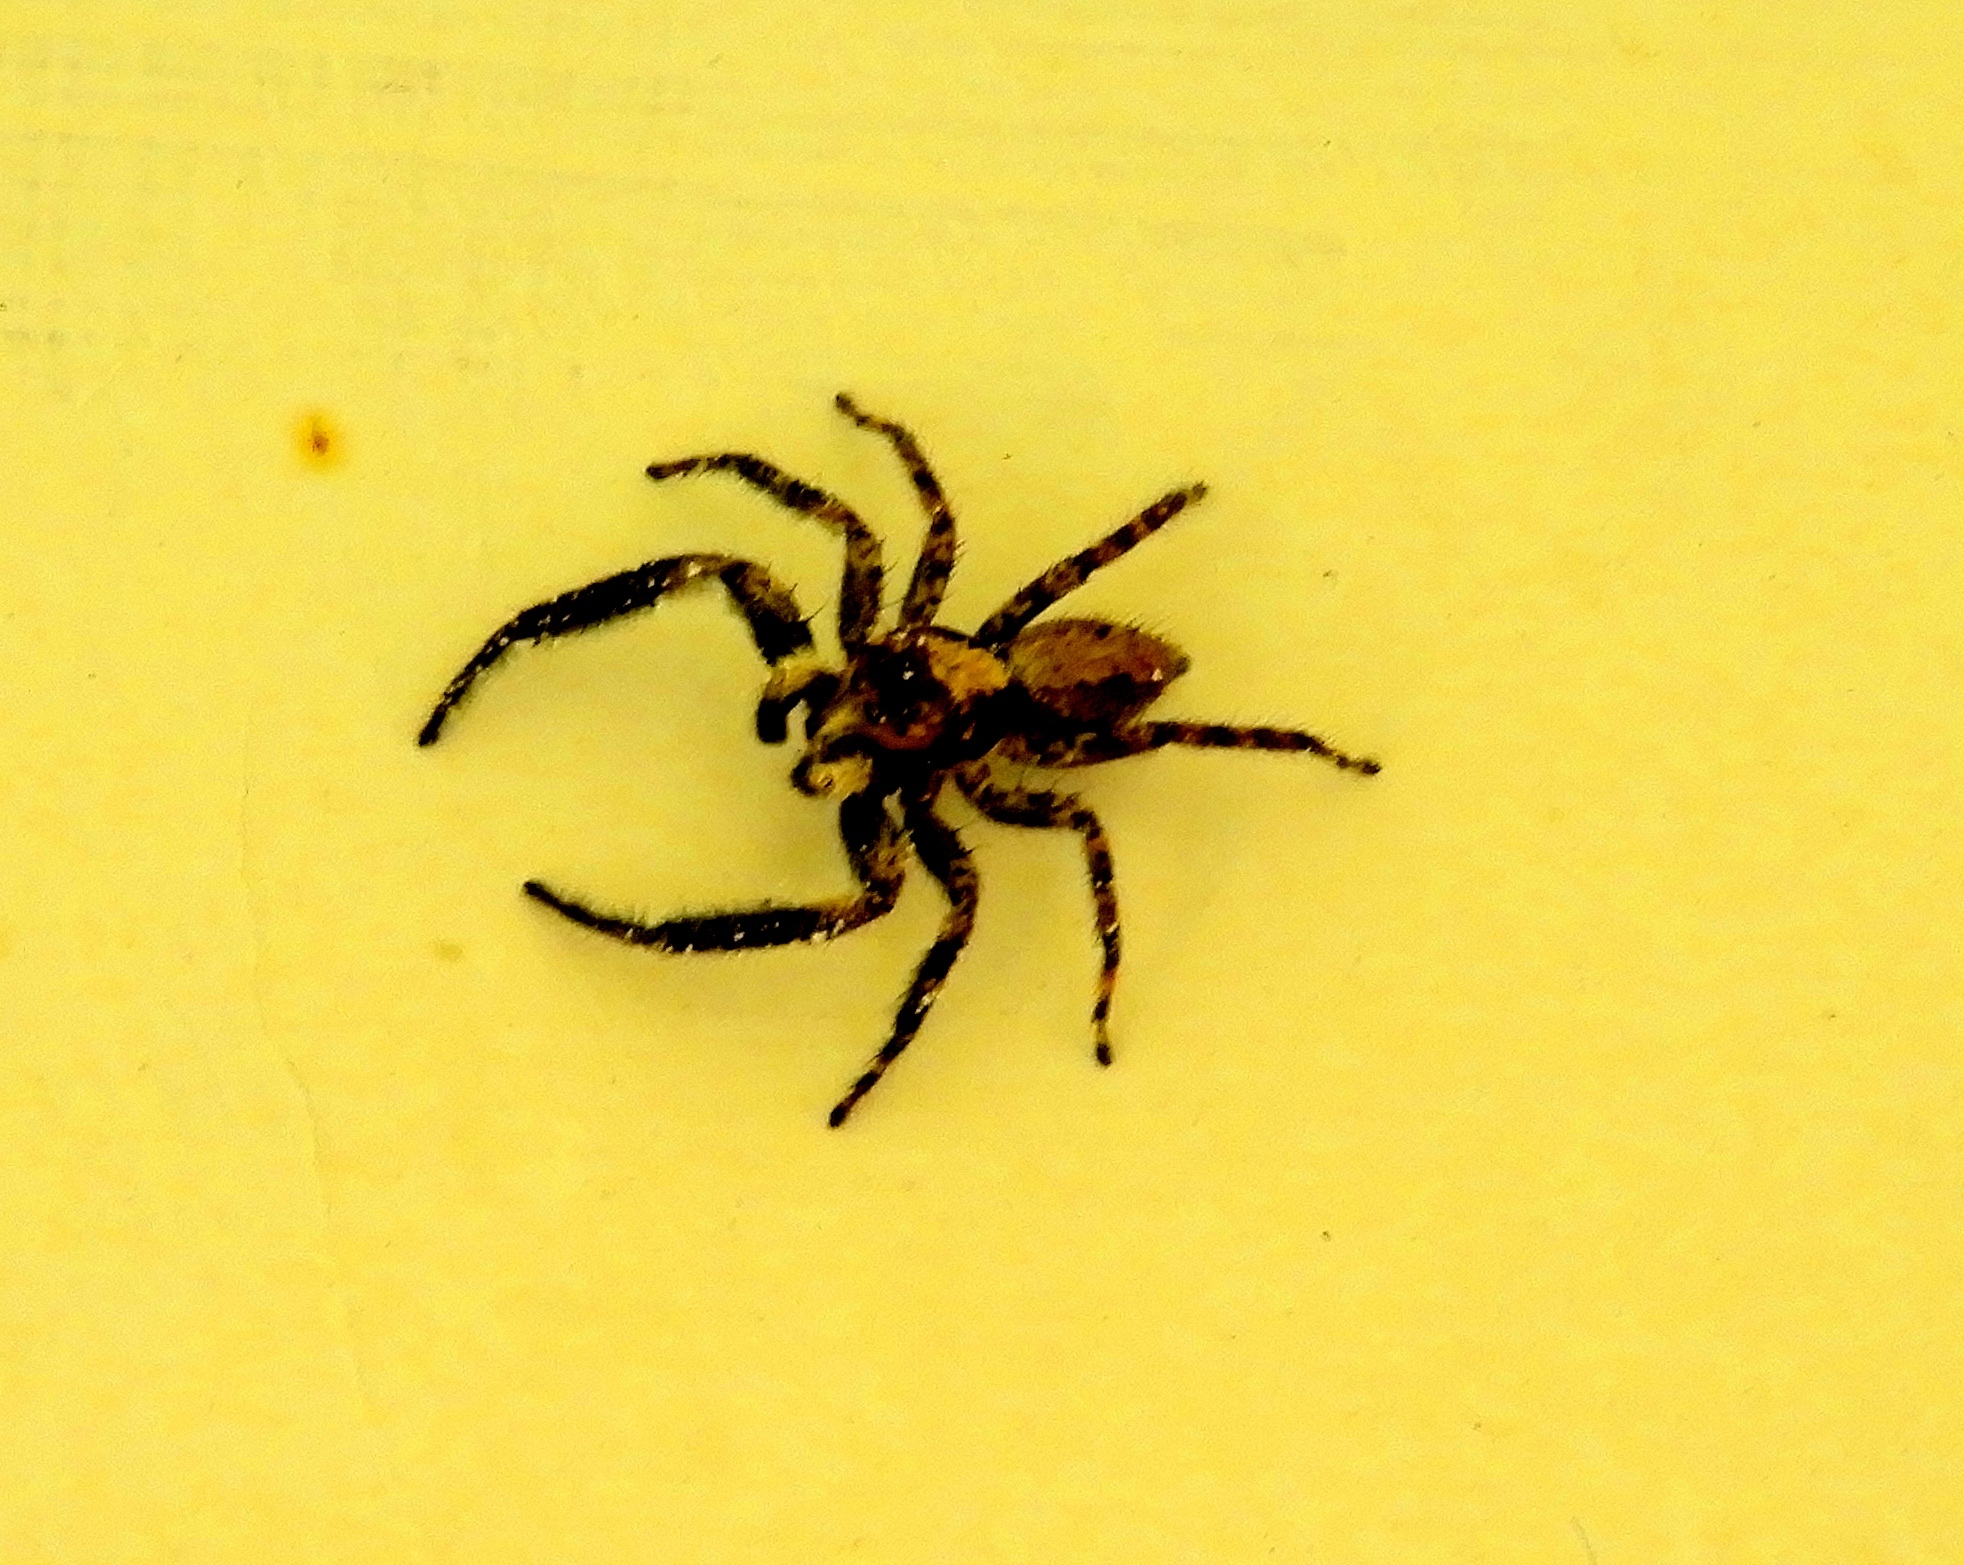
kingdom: Animalia
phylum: Arthropoda
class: Arachnida
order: Araneae
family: Salticidae
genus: Balmaceda
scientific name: Balmaceda
